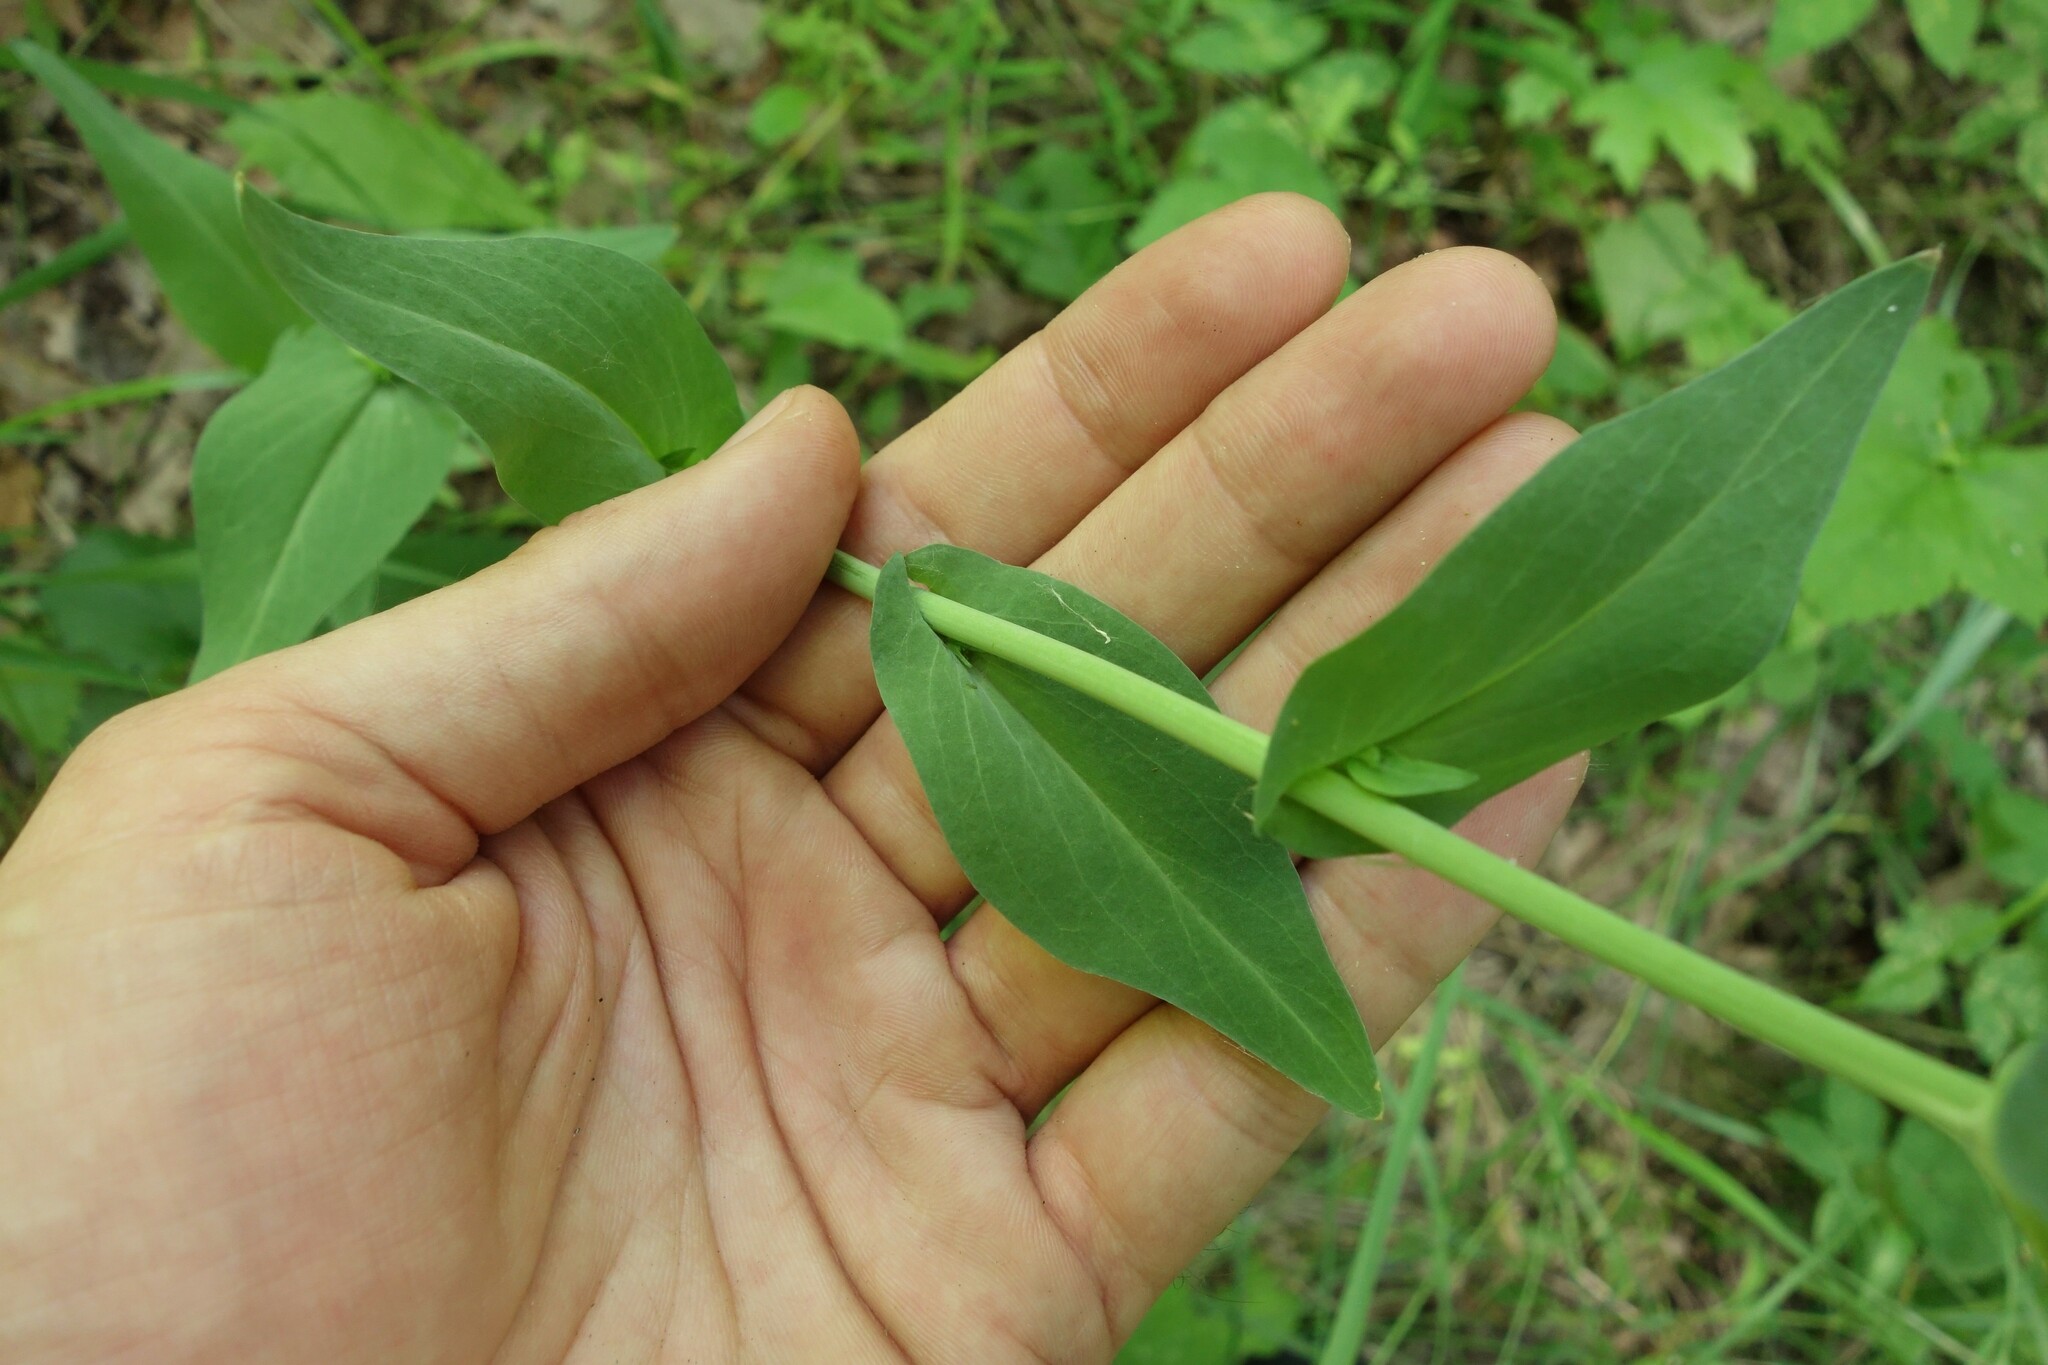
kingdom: Plantae
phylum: Tracheophyta
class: Magnoliopsida
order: Brassicales
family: Brassicaceae
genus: Turritis
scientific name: Turritis glabra
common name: Tower rockcress
